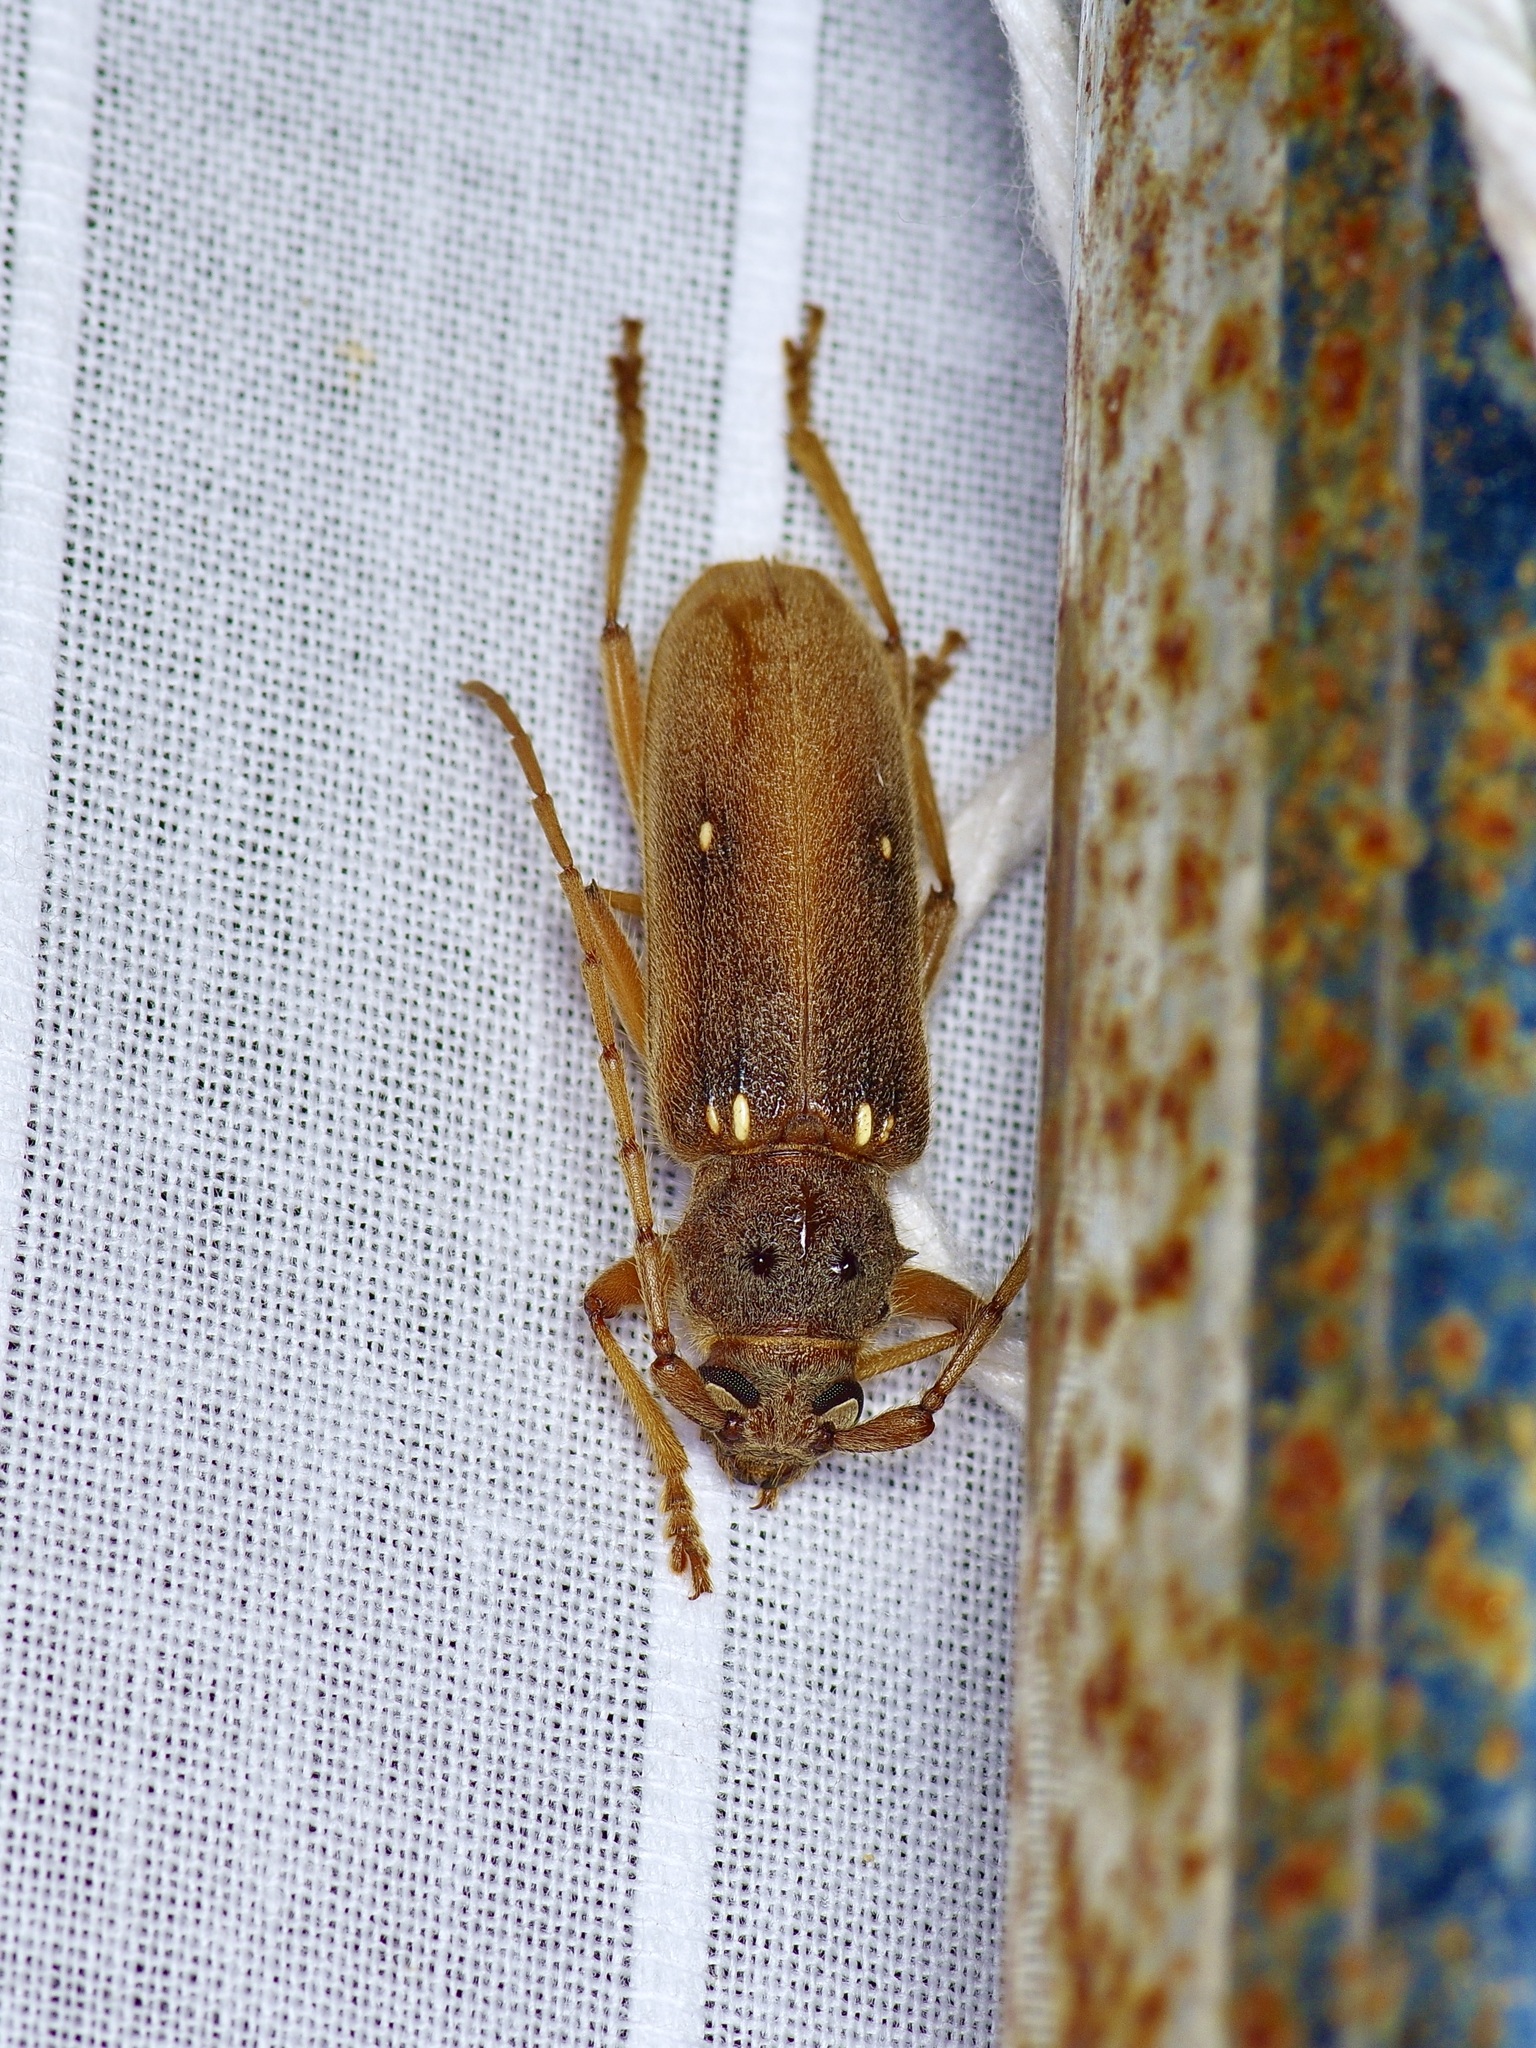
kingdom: Animalia
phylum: Arthropoda
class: Insecta
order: Coleoptera
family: Cerambycidae
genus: Eburia
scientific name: Eburia haldemani
